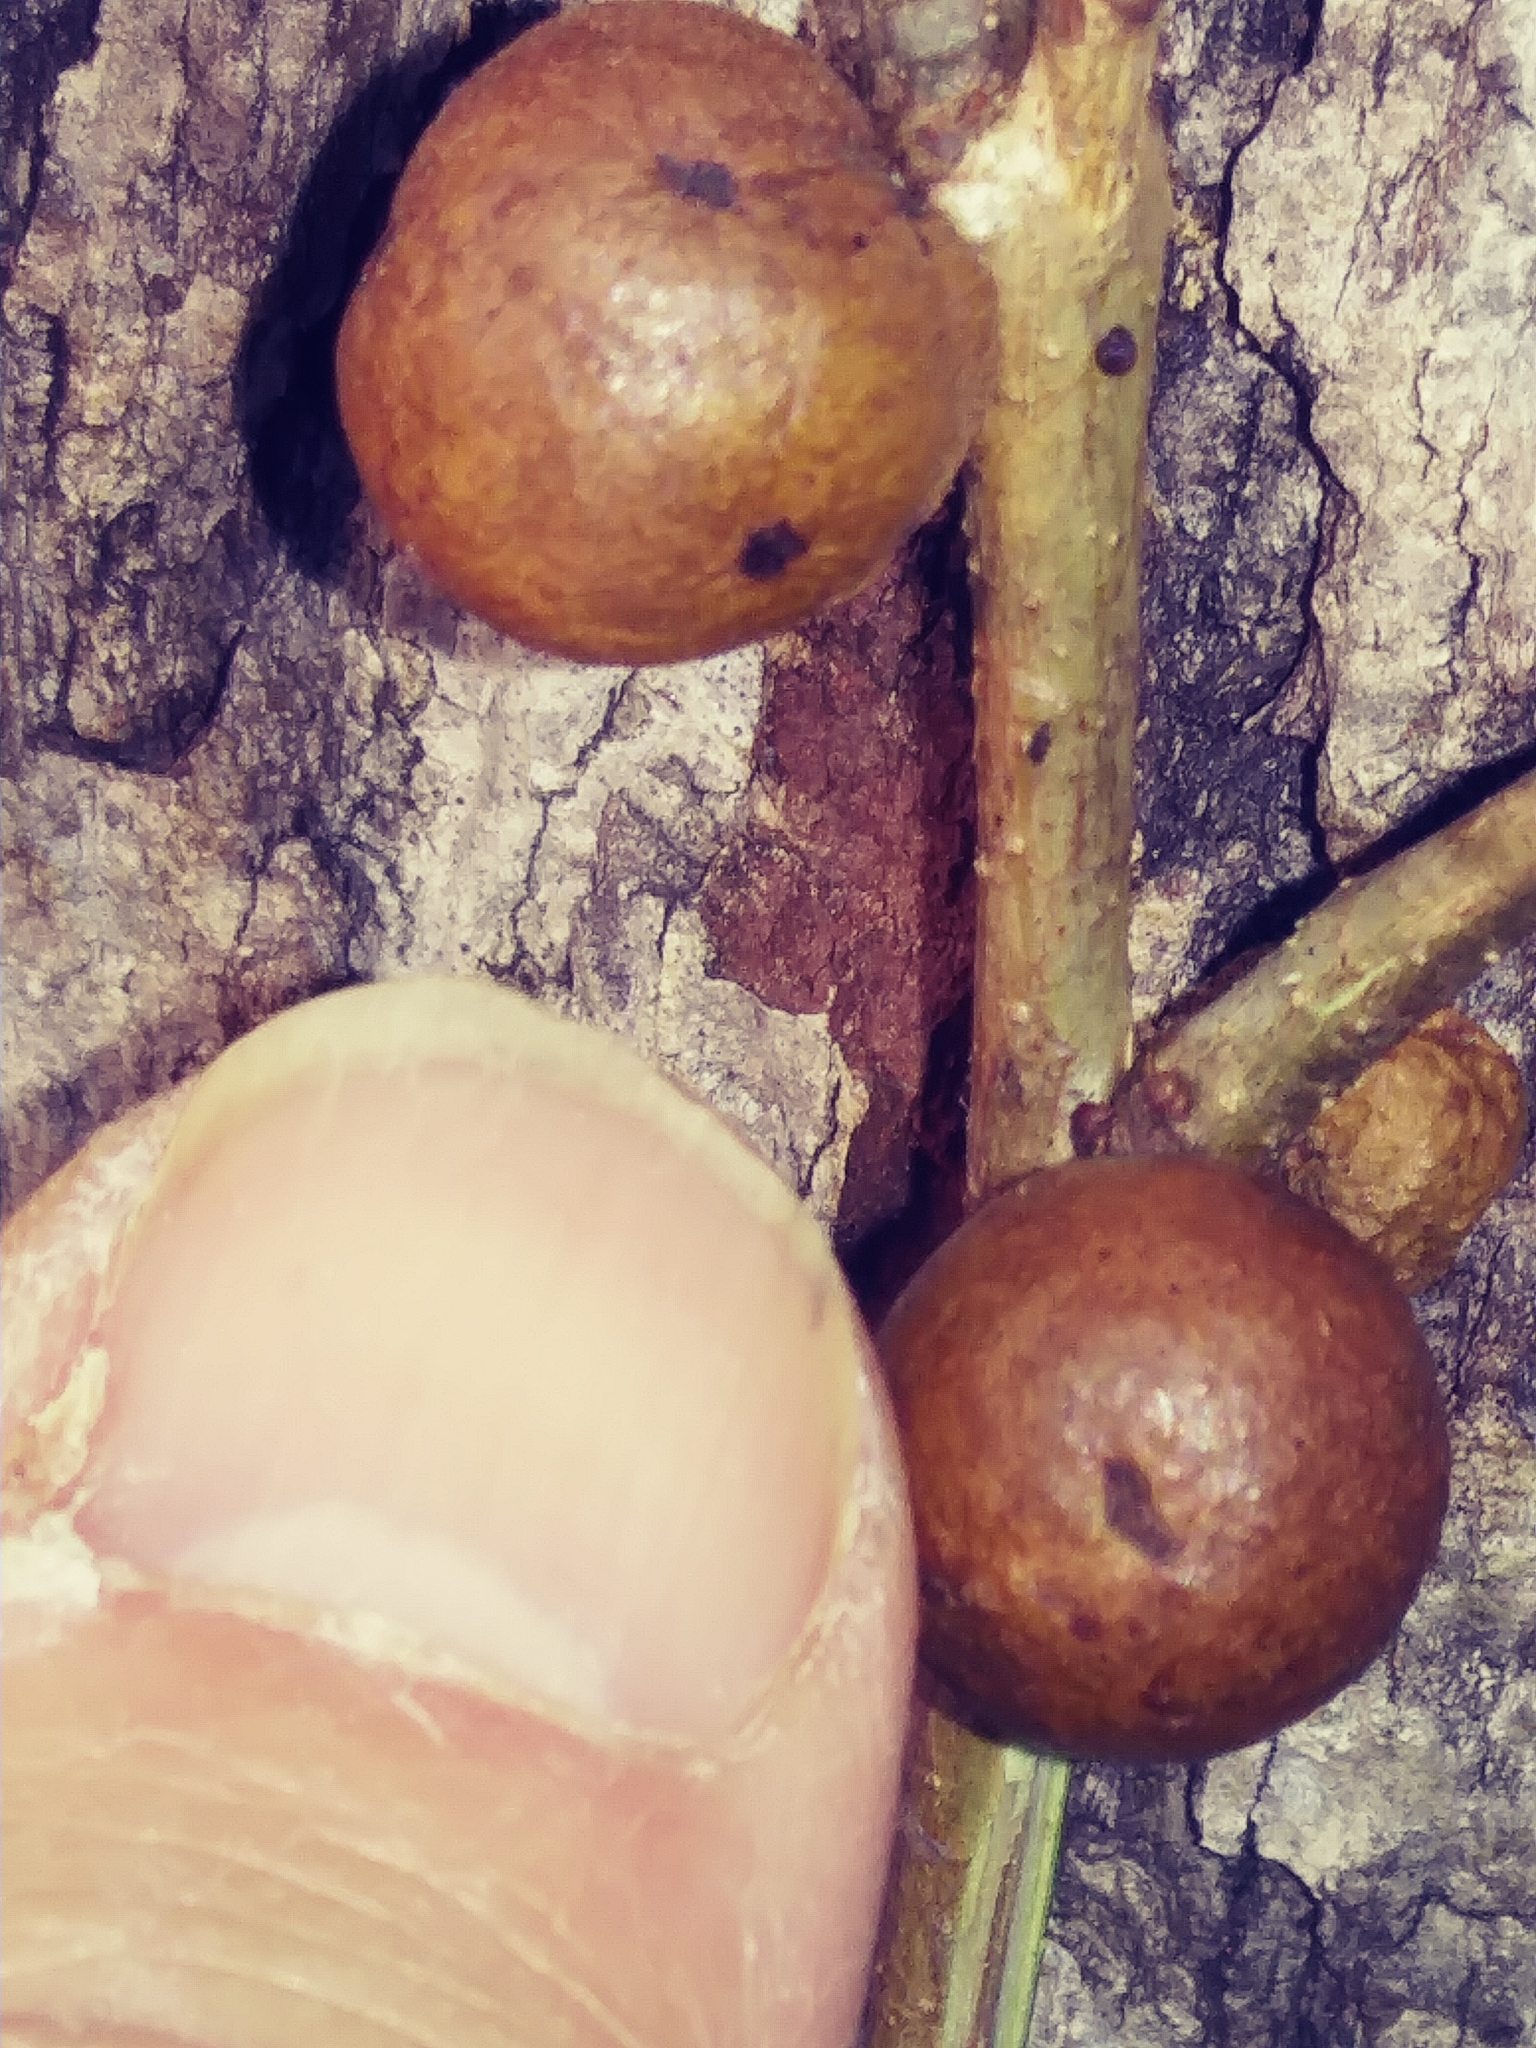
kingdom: Animalia
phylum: Arthropoda
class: Insecta
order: Hymenoptera
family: Cynipidae
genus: Disholcaspis
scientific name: Disholcaspis quercusglobulus
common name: Round bullet gall wasp
